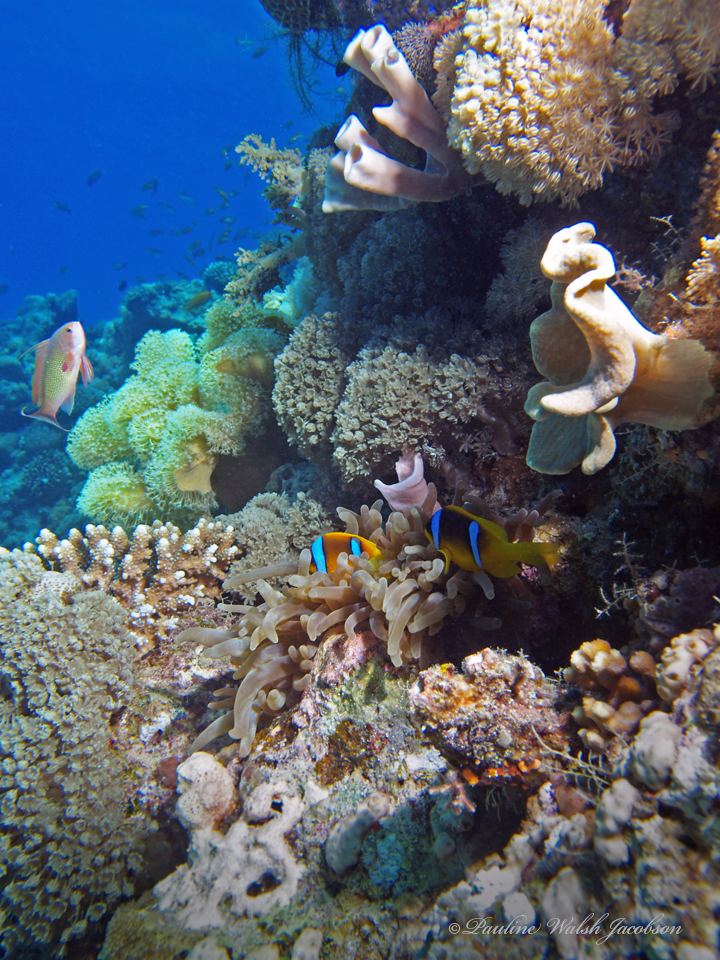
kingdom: Animalia
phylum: Chordata
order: Perciformes
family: Pomacentridae
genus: Amphiprion
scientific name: Amphiprion bicinctus
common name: Two-banded anemonefish
